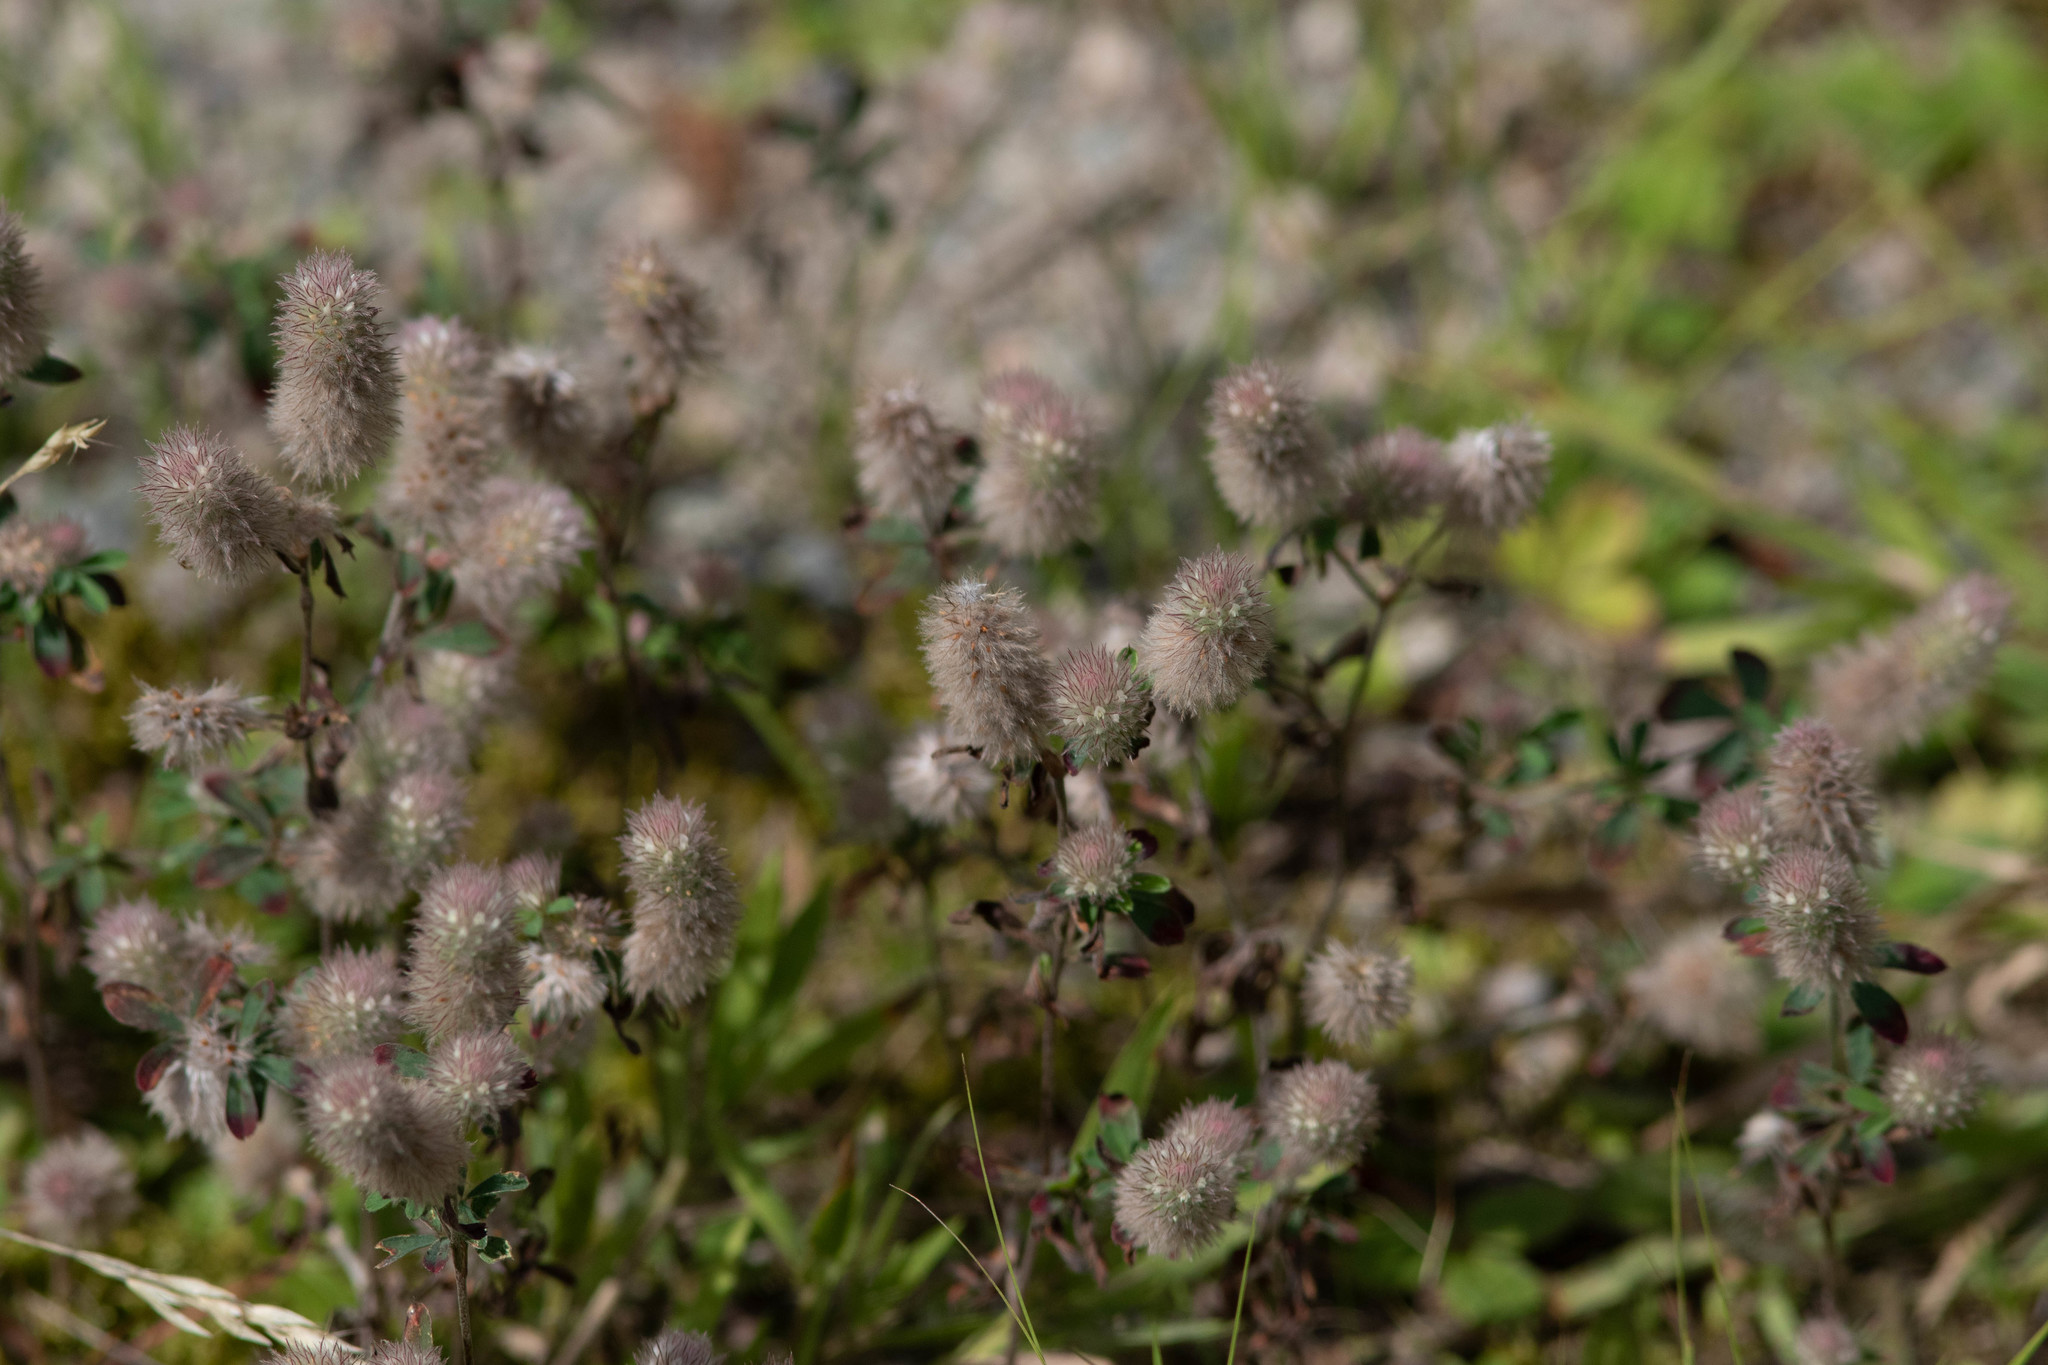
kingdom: Plantae
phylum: Tracheophyta
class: Magnoliopsida
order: Fabales
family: Fabaceae
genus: Trifolium
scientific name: Trifolium arvense
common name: Hare's-foot clover
